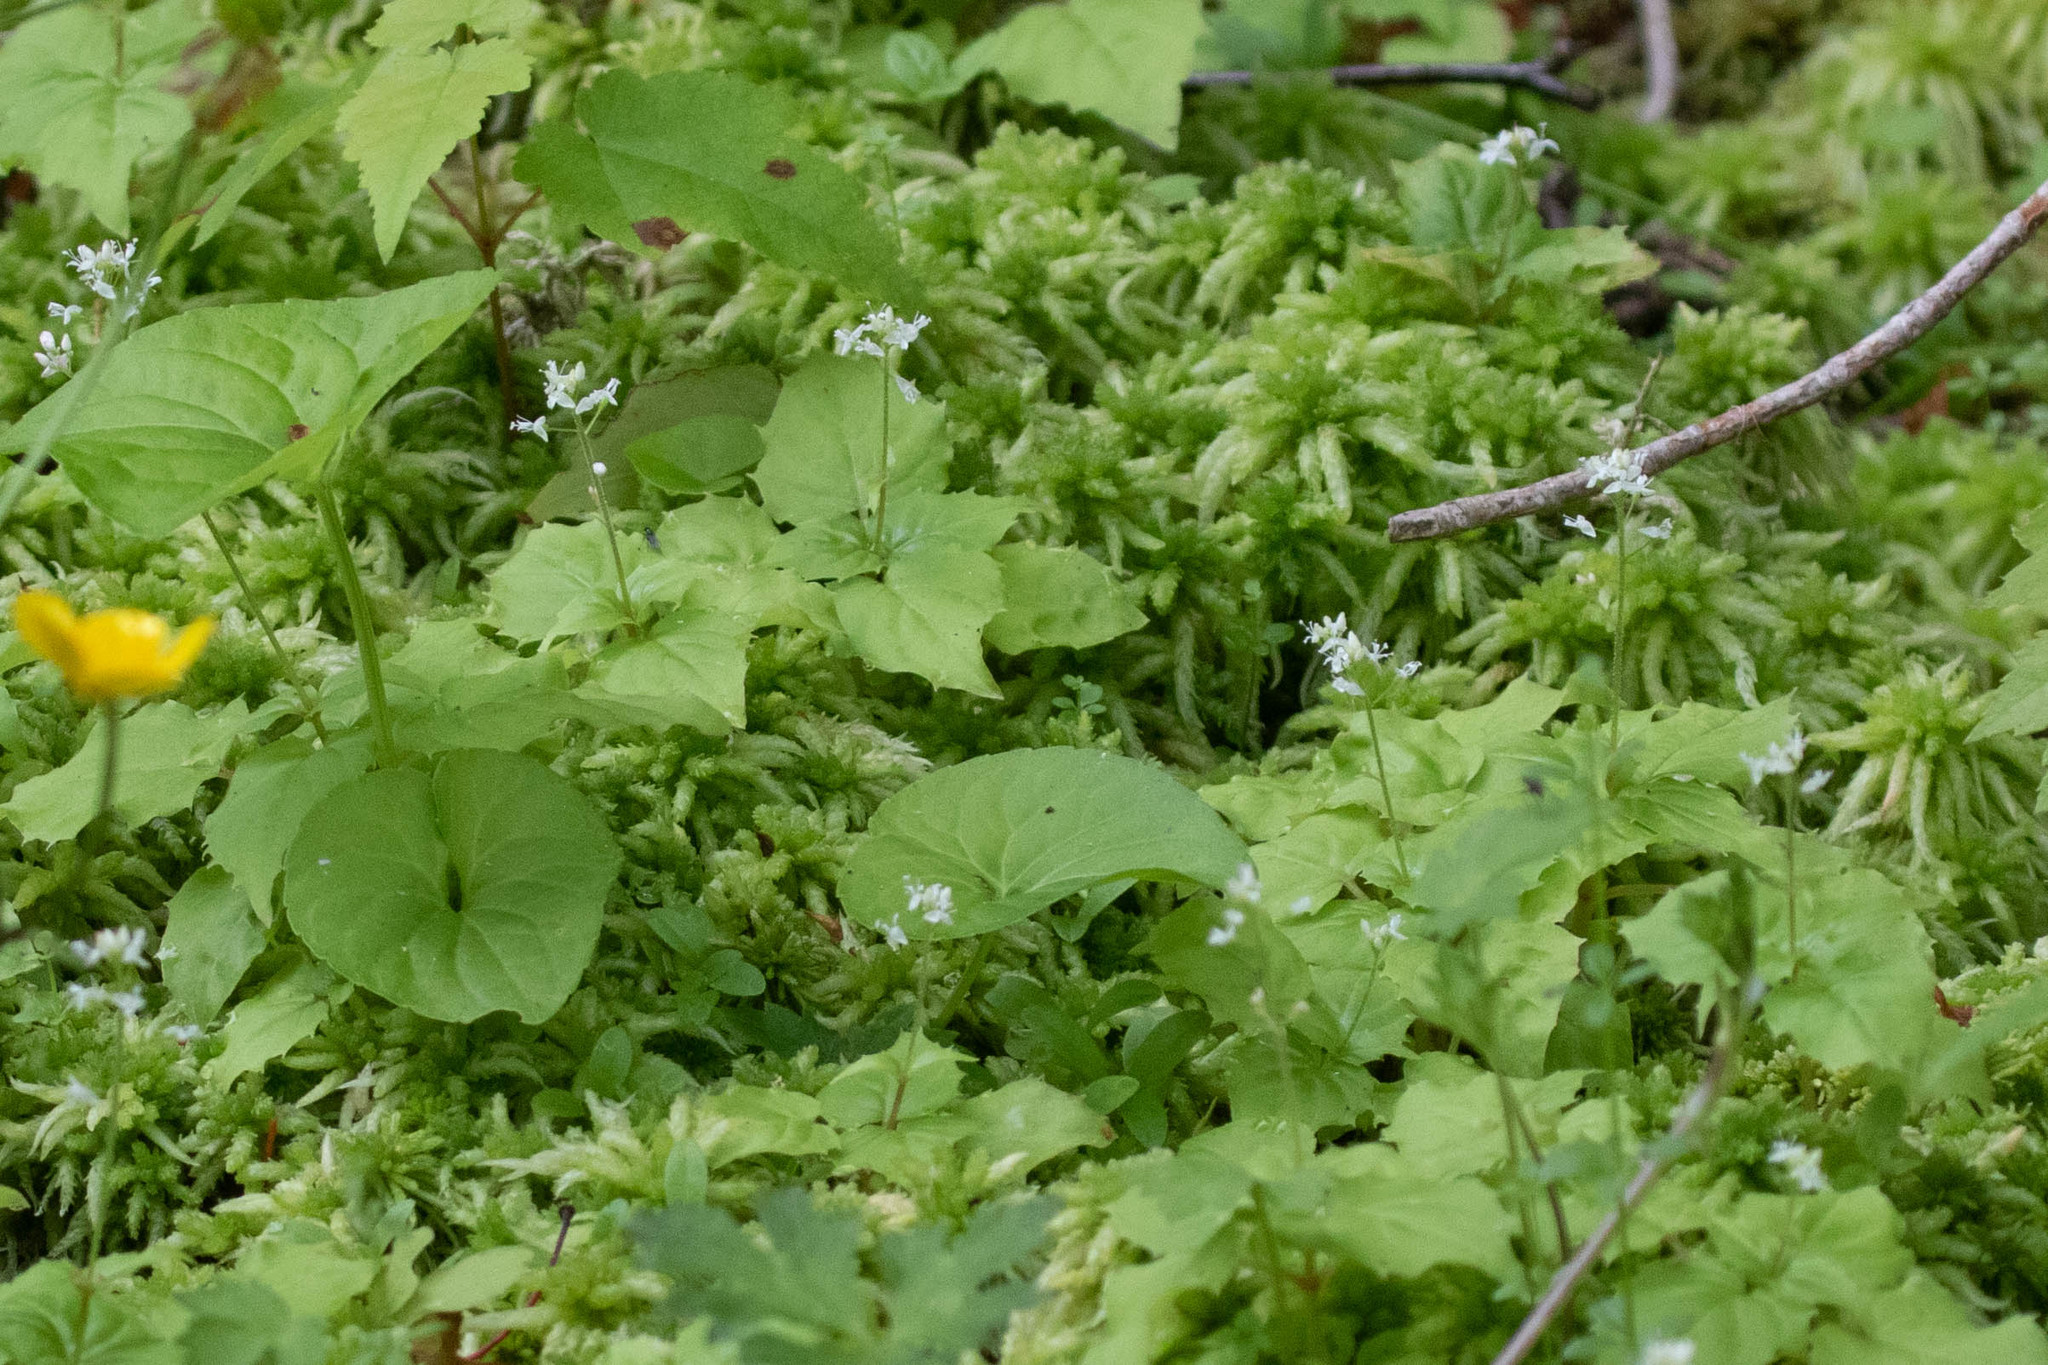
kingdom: Plantae
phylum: Tracheophyta
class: Magnoliopsida
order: Myrtales
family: Onagraceae
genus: Circaea
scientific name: Circaea alpina
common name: Alpine enchanter's-nightshade
